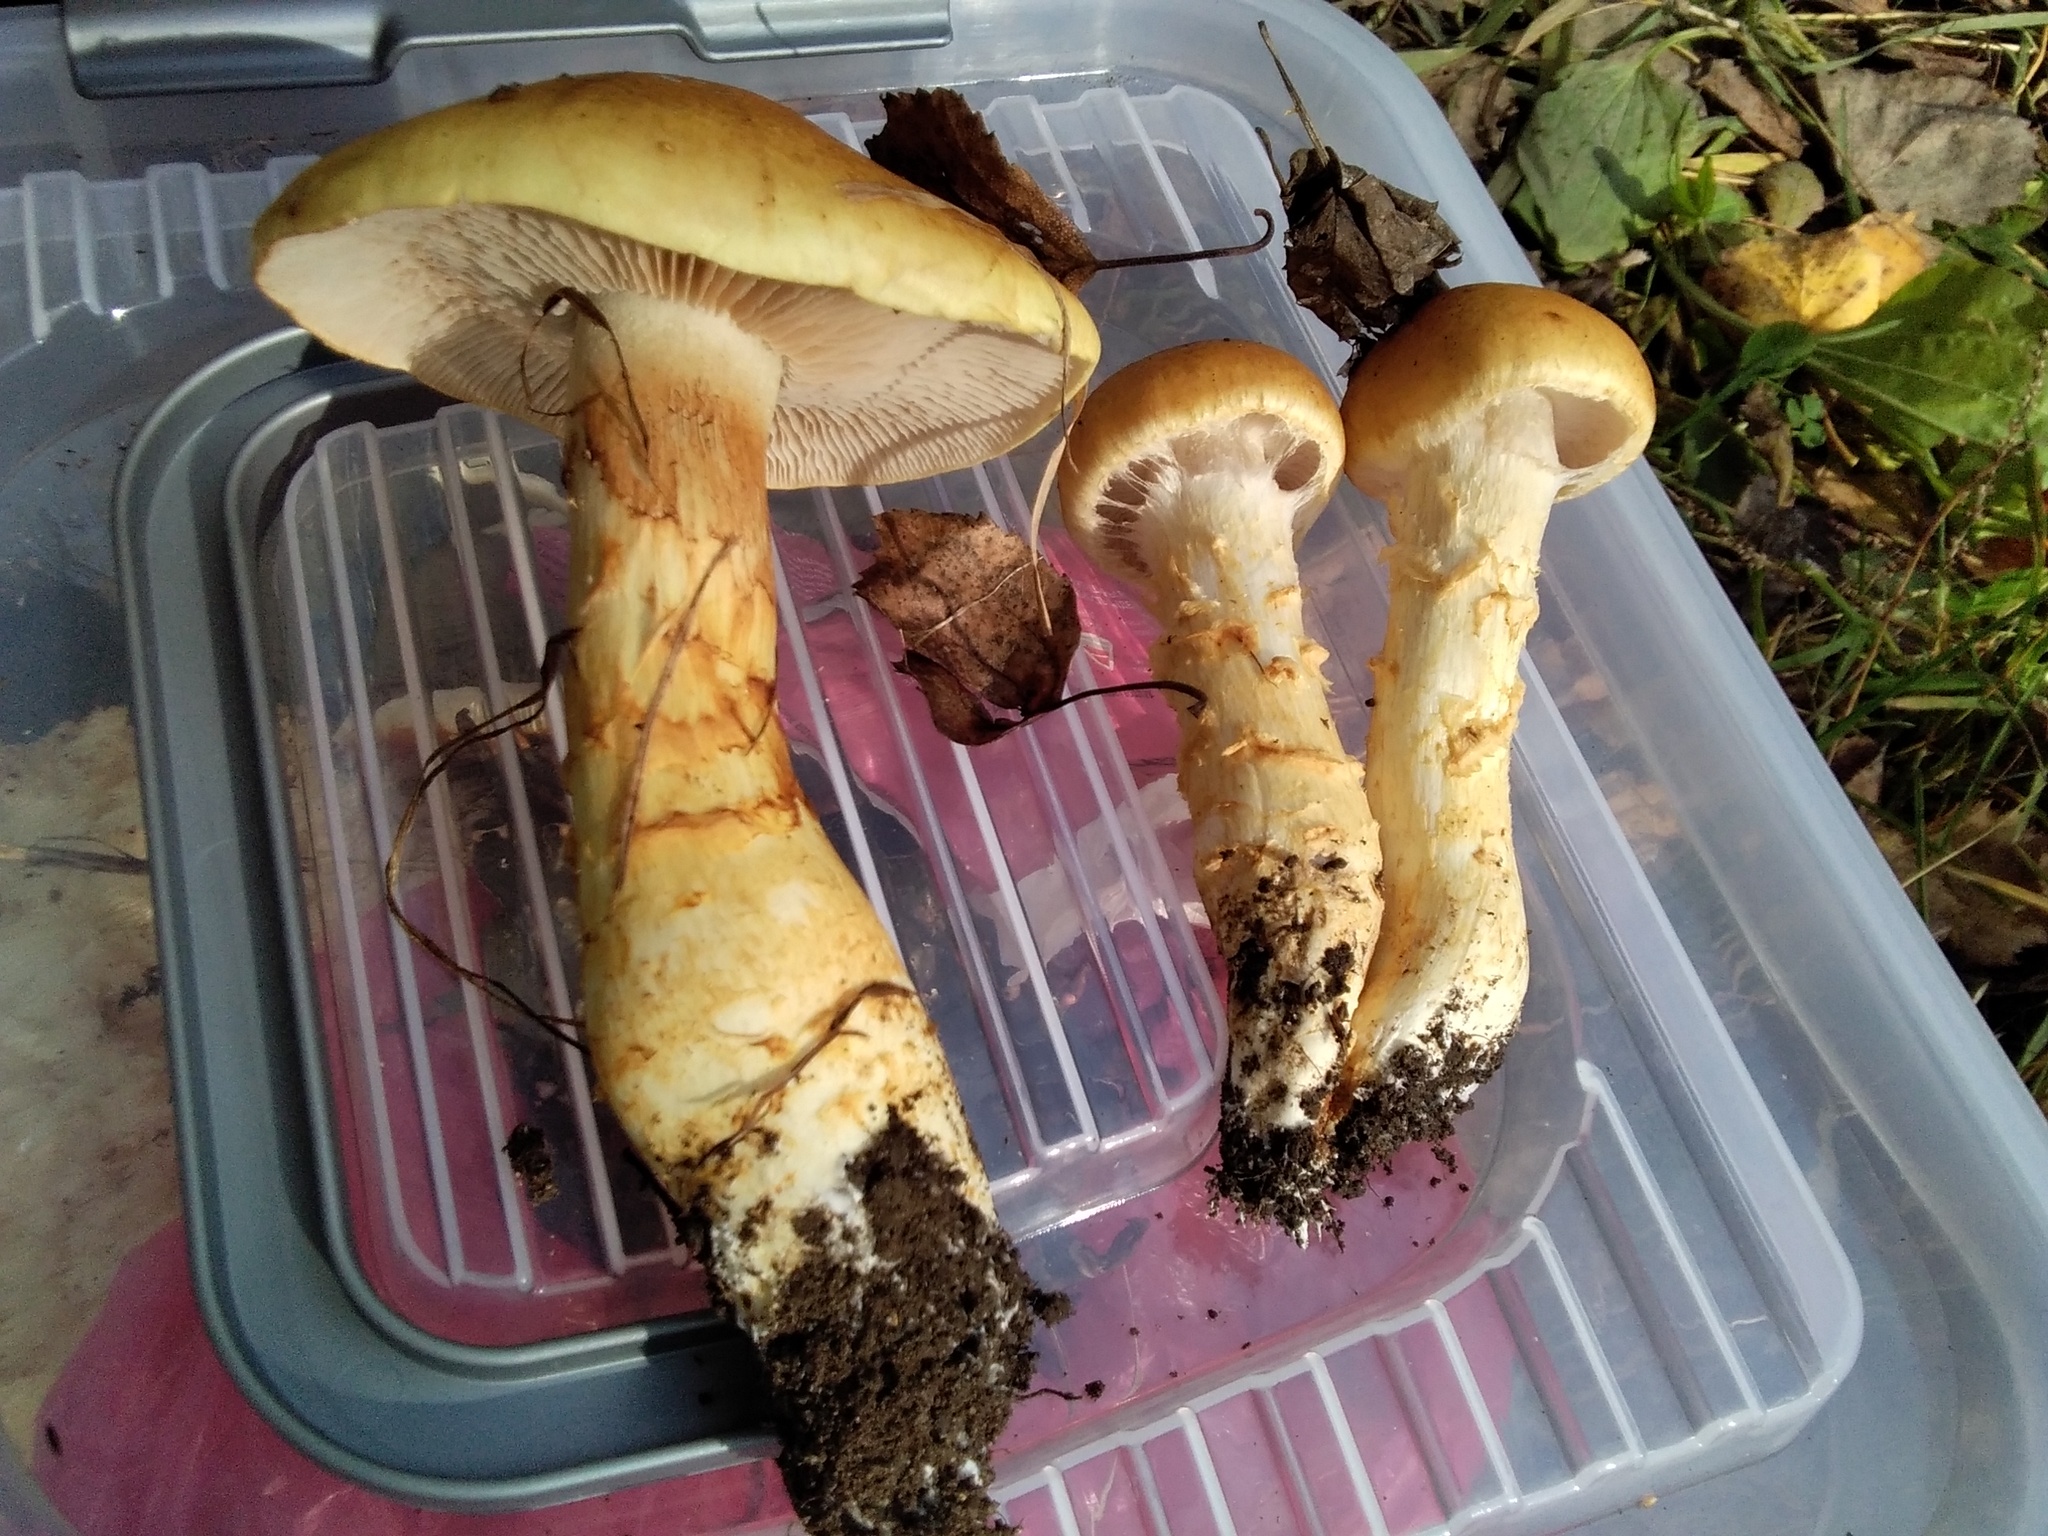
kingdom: Fungi
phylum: Basidiomycota
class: Agaricomycetes
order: Agaricales
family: Cortinariaceae
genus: Cortinarius
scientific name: Cortinarius armillatus
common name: Red banded webcap
